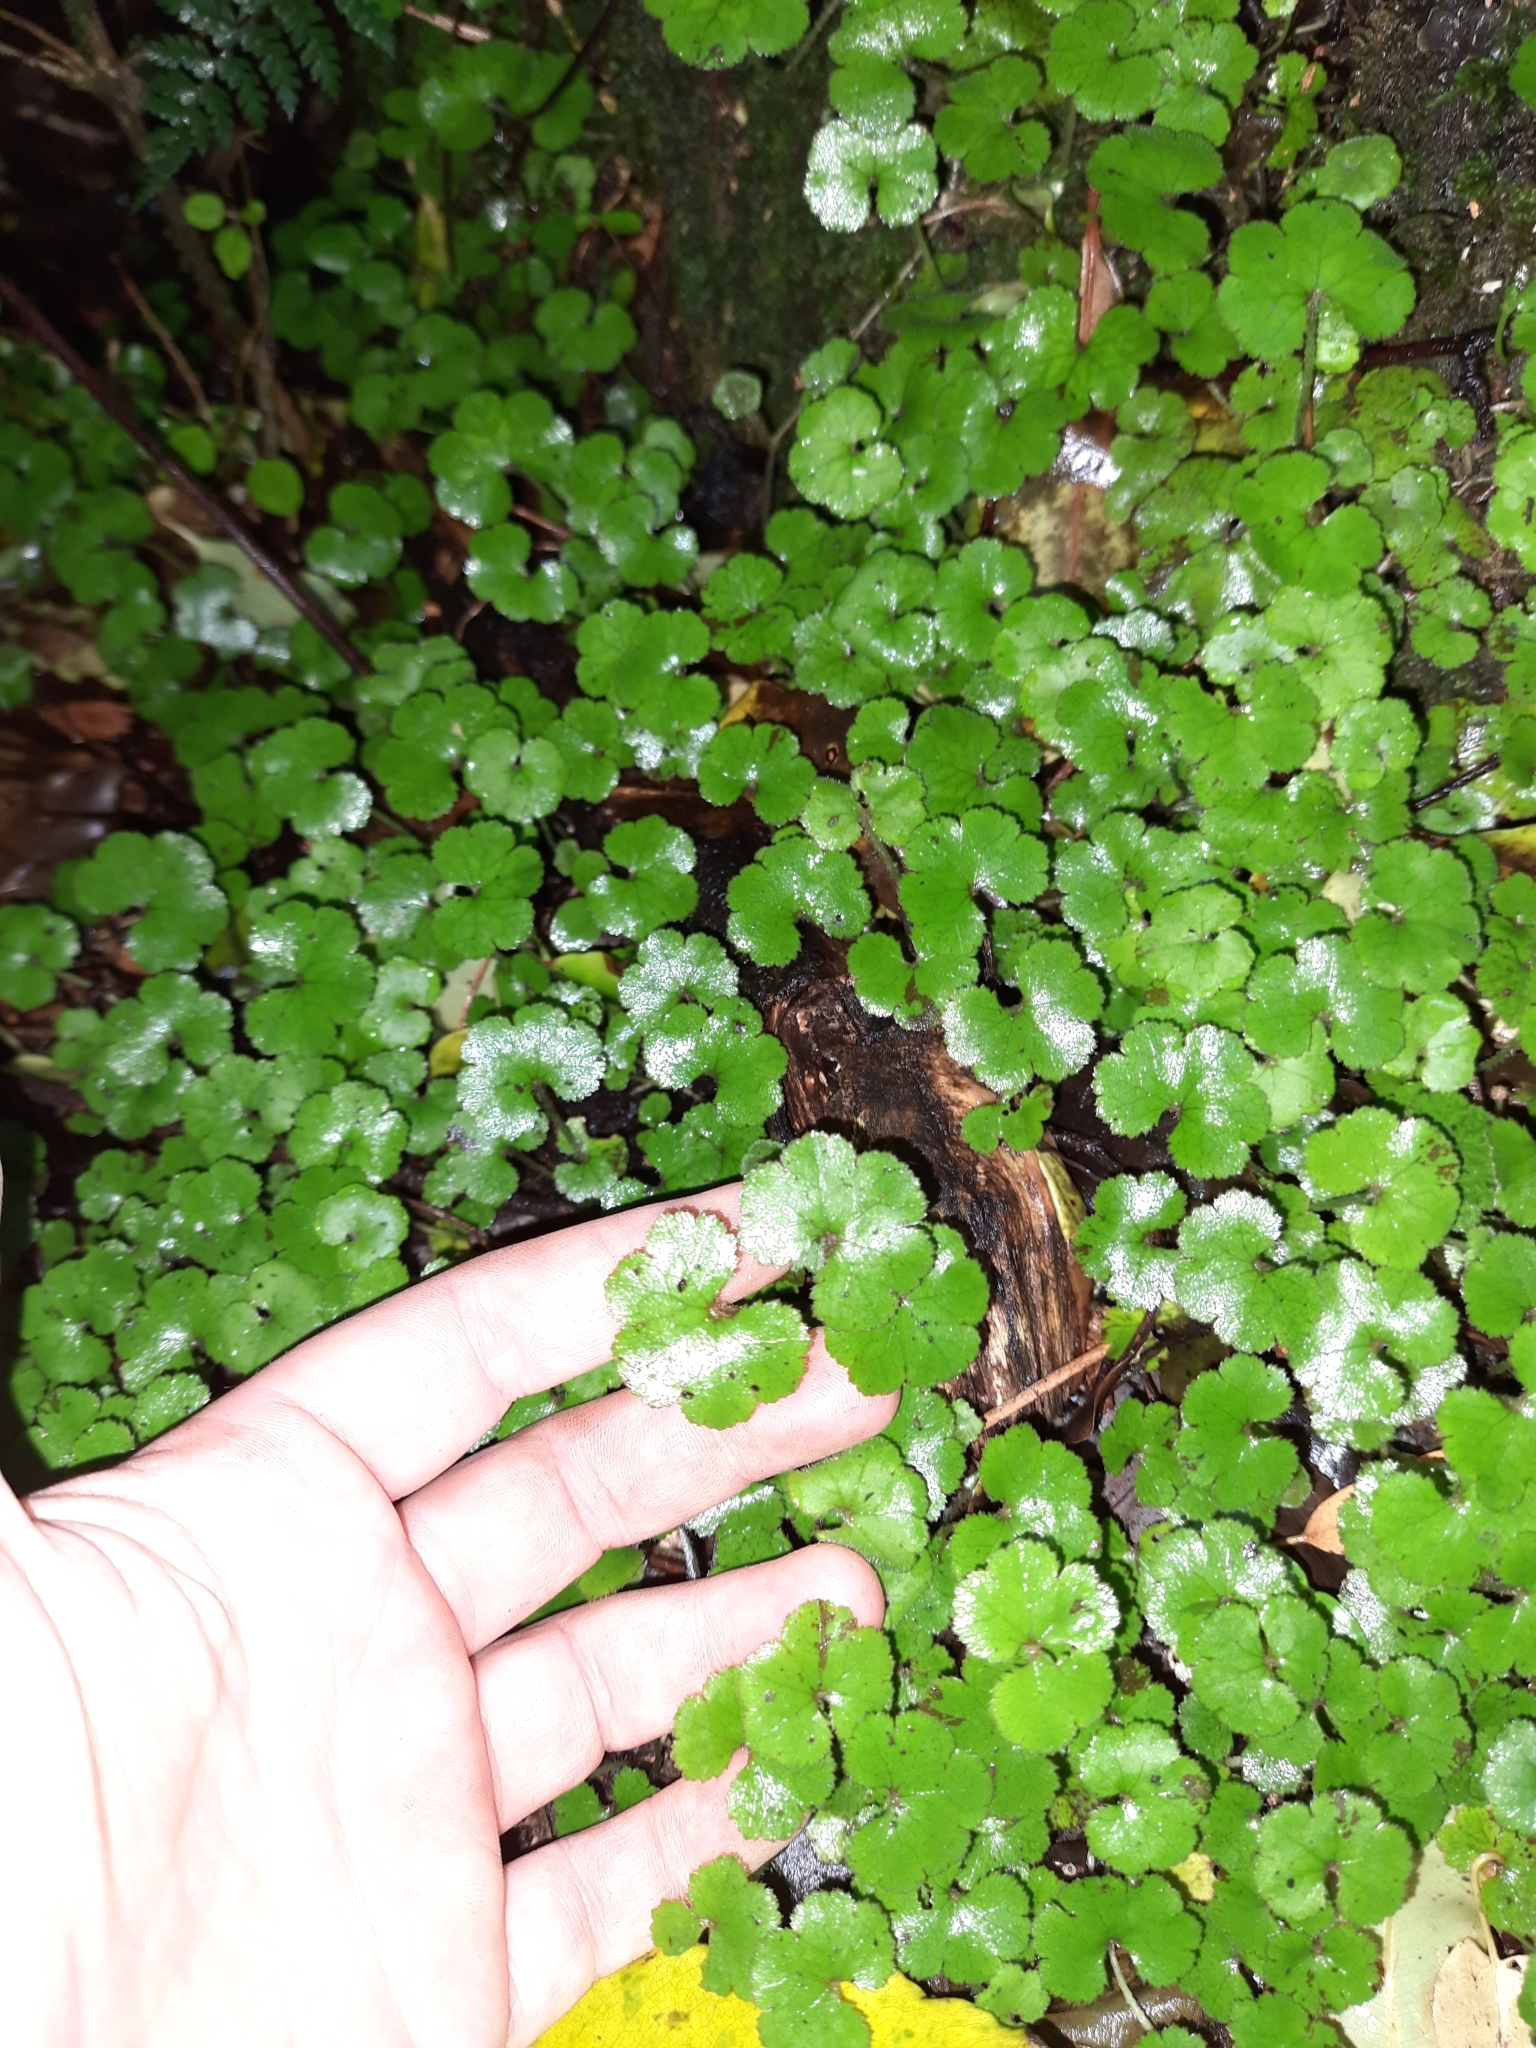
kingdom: Plantae
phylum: Tracheophyta
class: Magnoliopsida
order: Apiales
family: Araliaceae
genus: Hydrocotyle
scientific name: Hydrocotyle elongata
